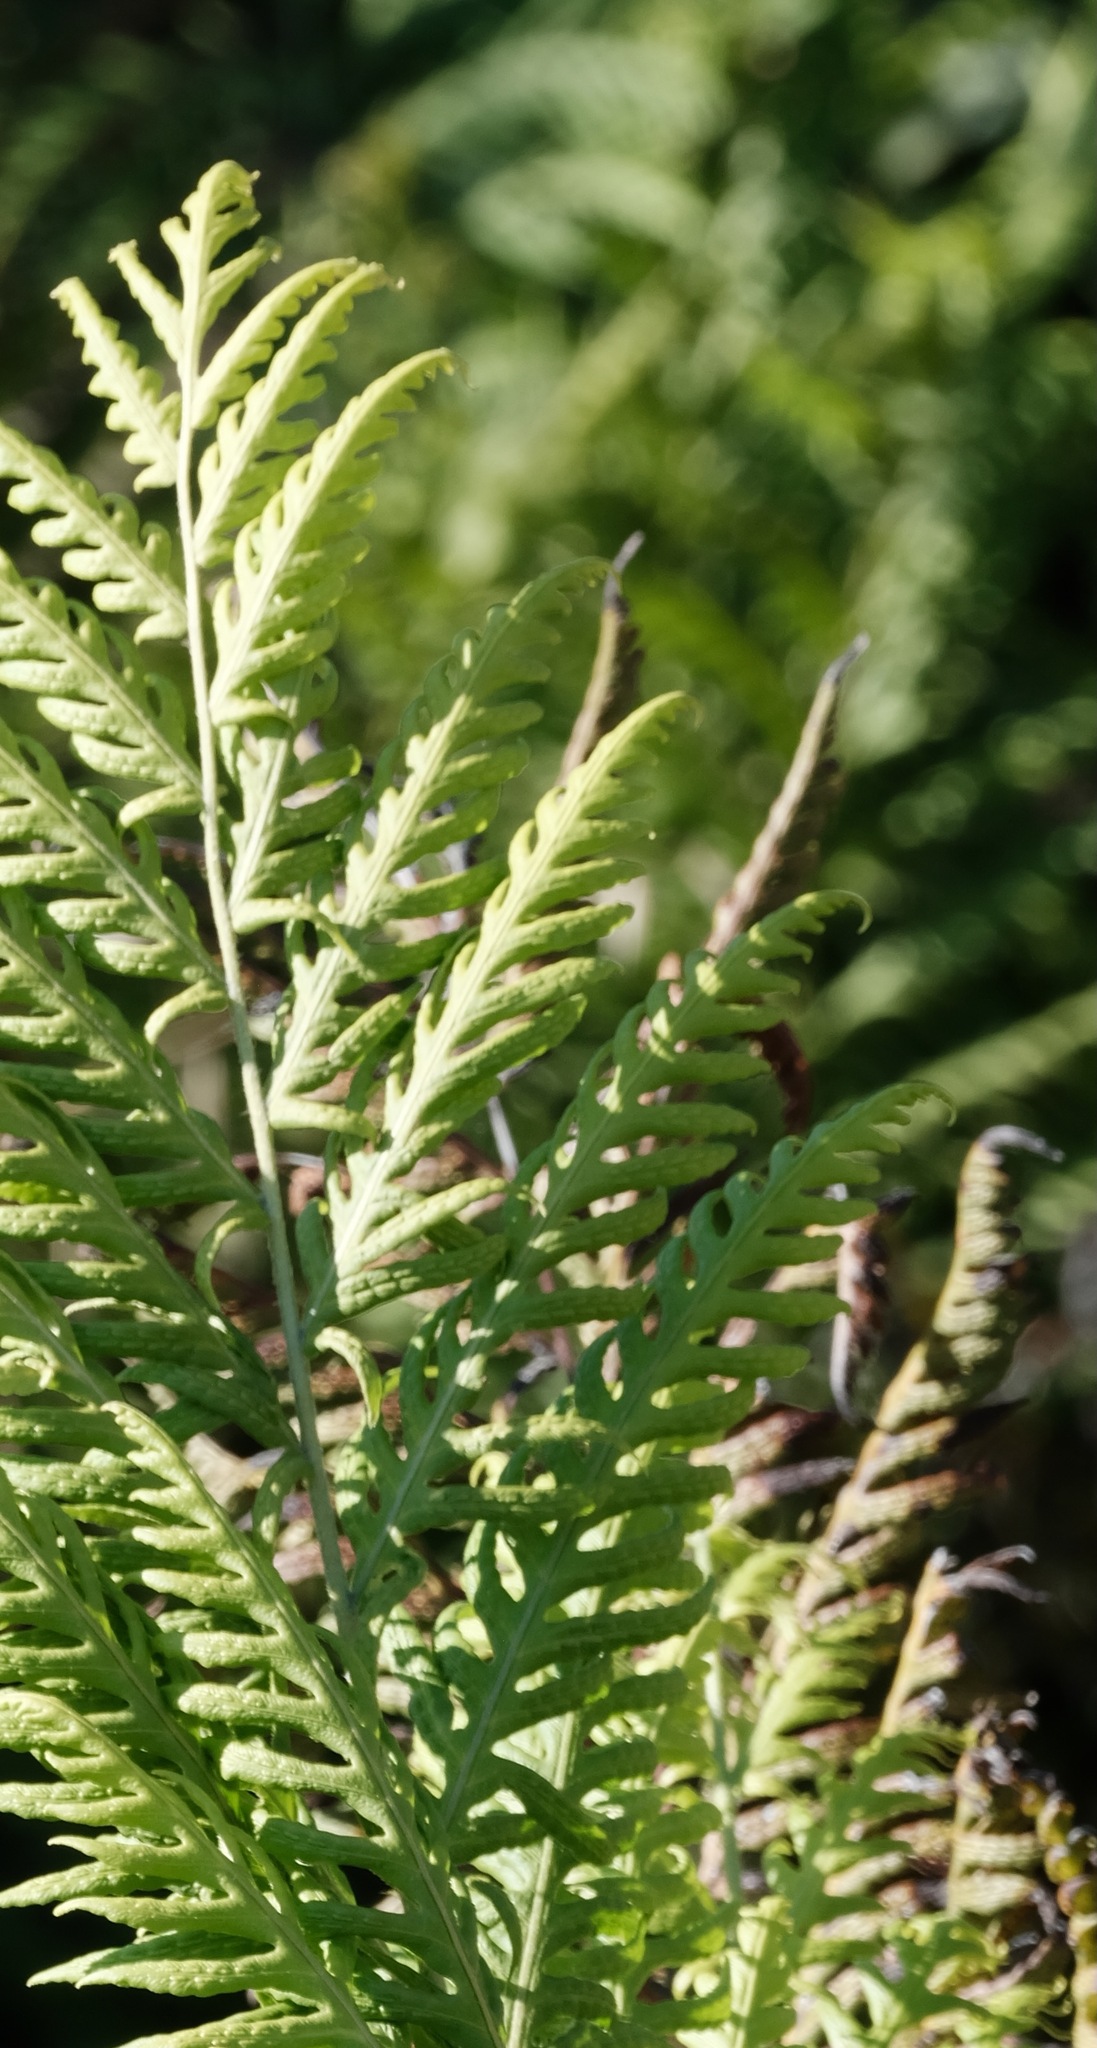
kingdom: Plantae
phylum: Tracheophyta
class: Polypodiopsida
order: Polypodiales
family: Blechnaceae
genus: Woodwardia
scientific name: Woodwardia fimbriata
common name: Giant chain fern
